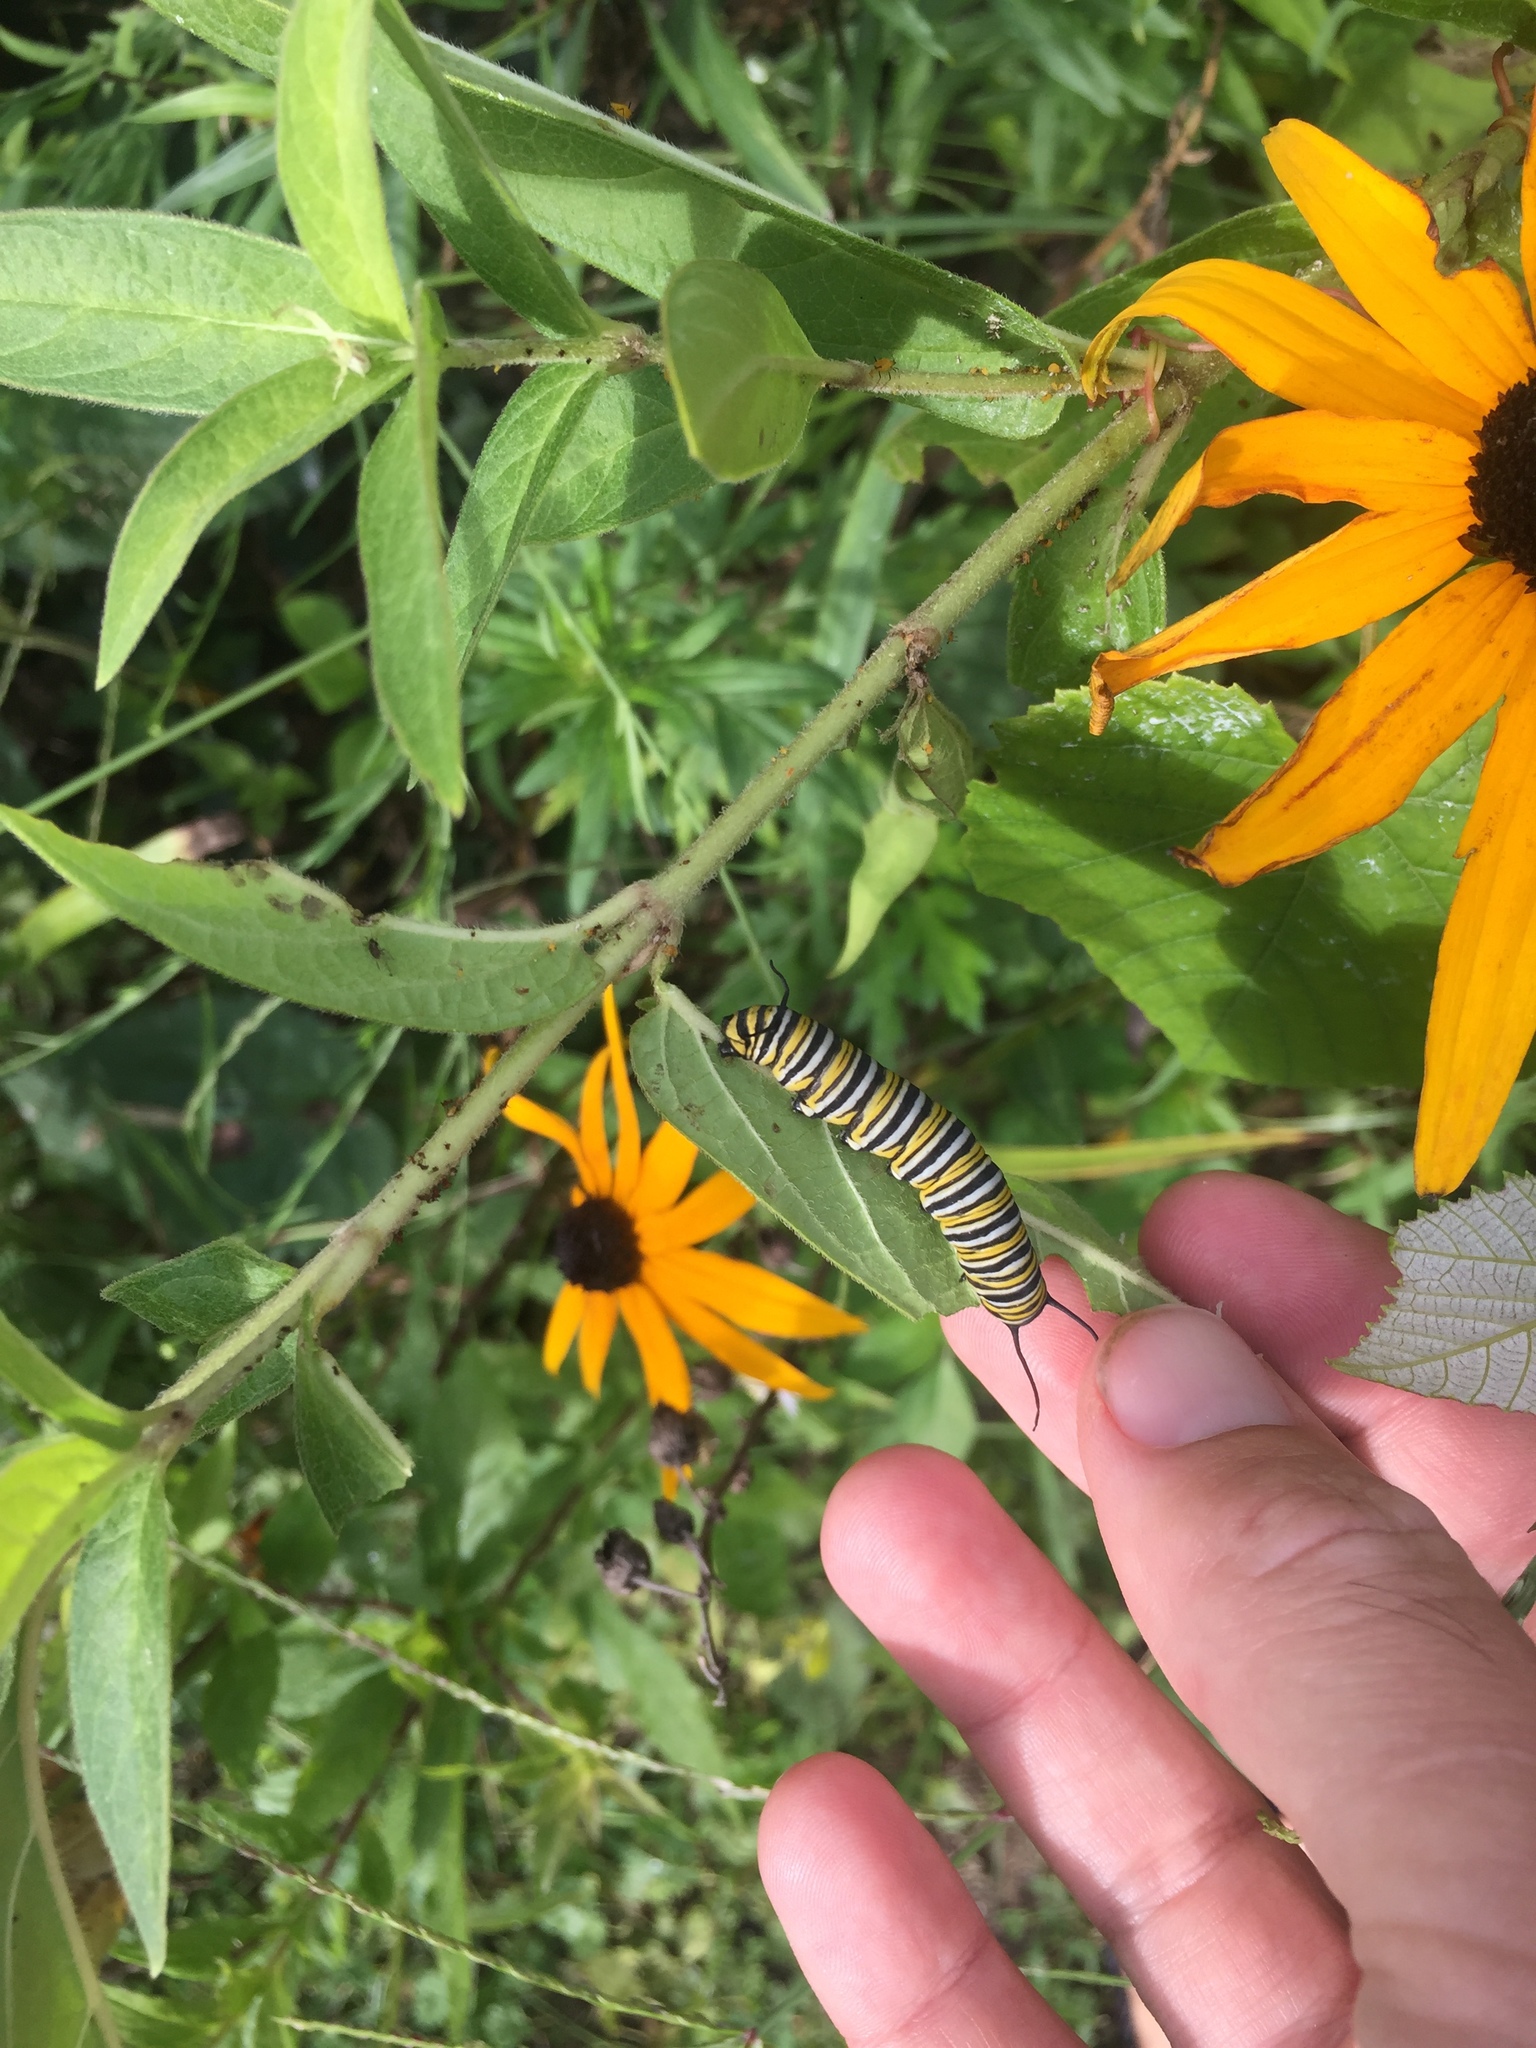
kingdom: Animalia
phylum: Arthropoda
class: Insecta
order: Lepidoptera
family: Nymphalidae
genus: Danaus
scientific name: Danaus plexippus
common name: Monarch
